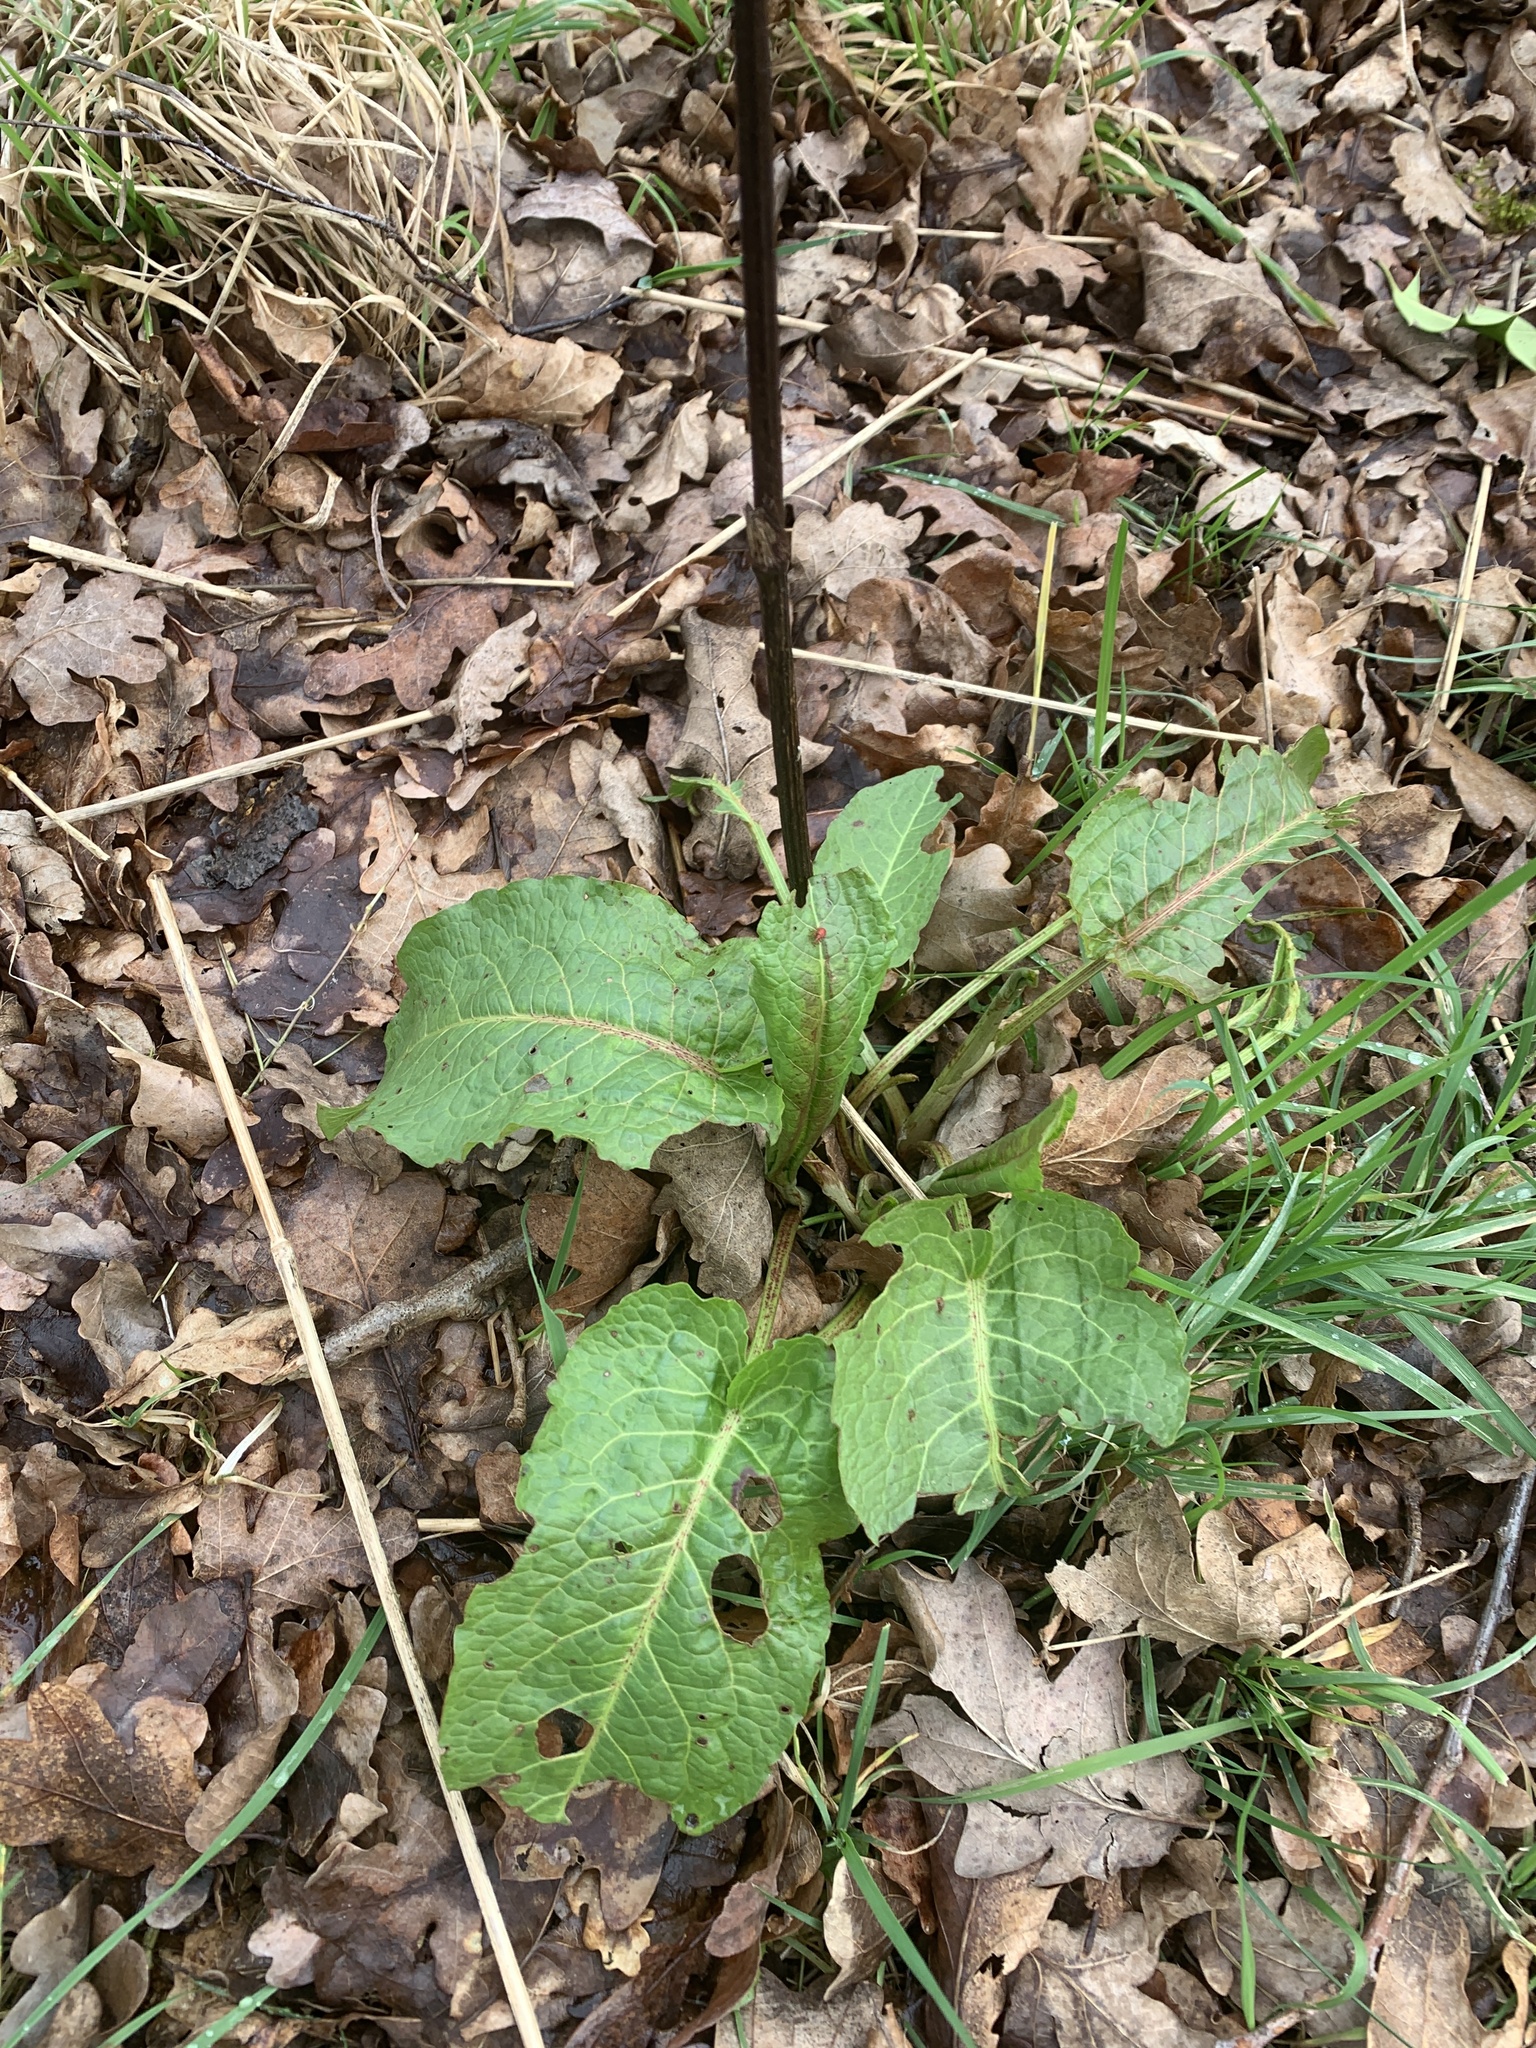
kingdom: Plantae
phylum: Tracheophyta
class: Magnoliopsida
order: Caryophyllales
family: Polygonaceae
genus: Rumex
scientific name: Rumex obtusifolius
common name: Bitter dock
